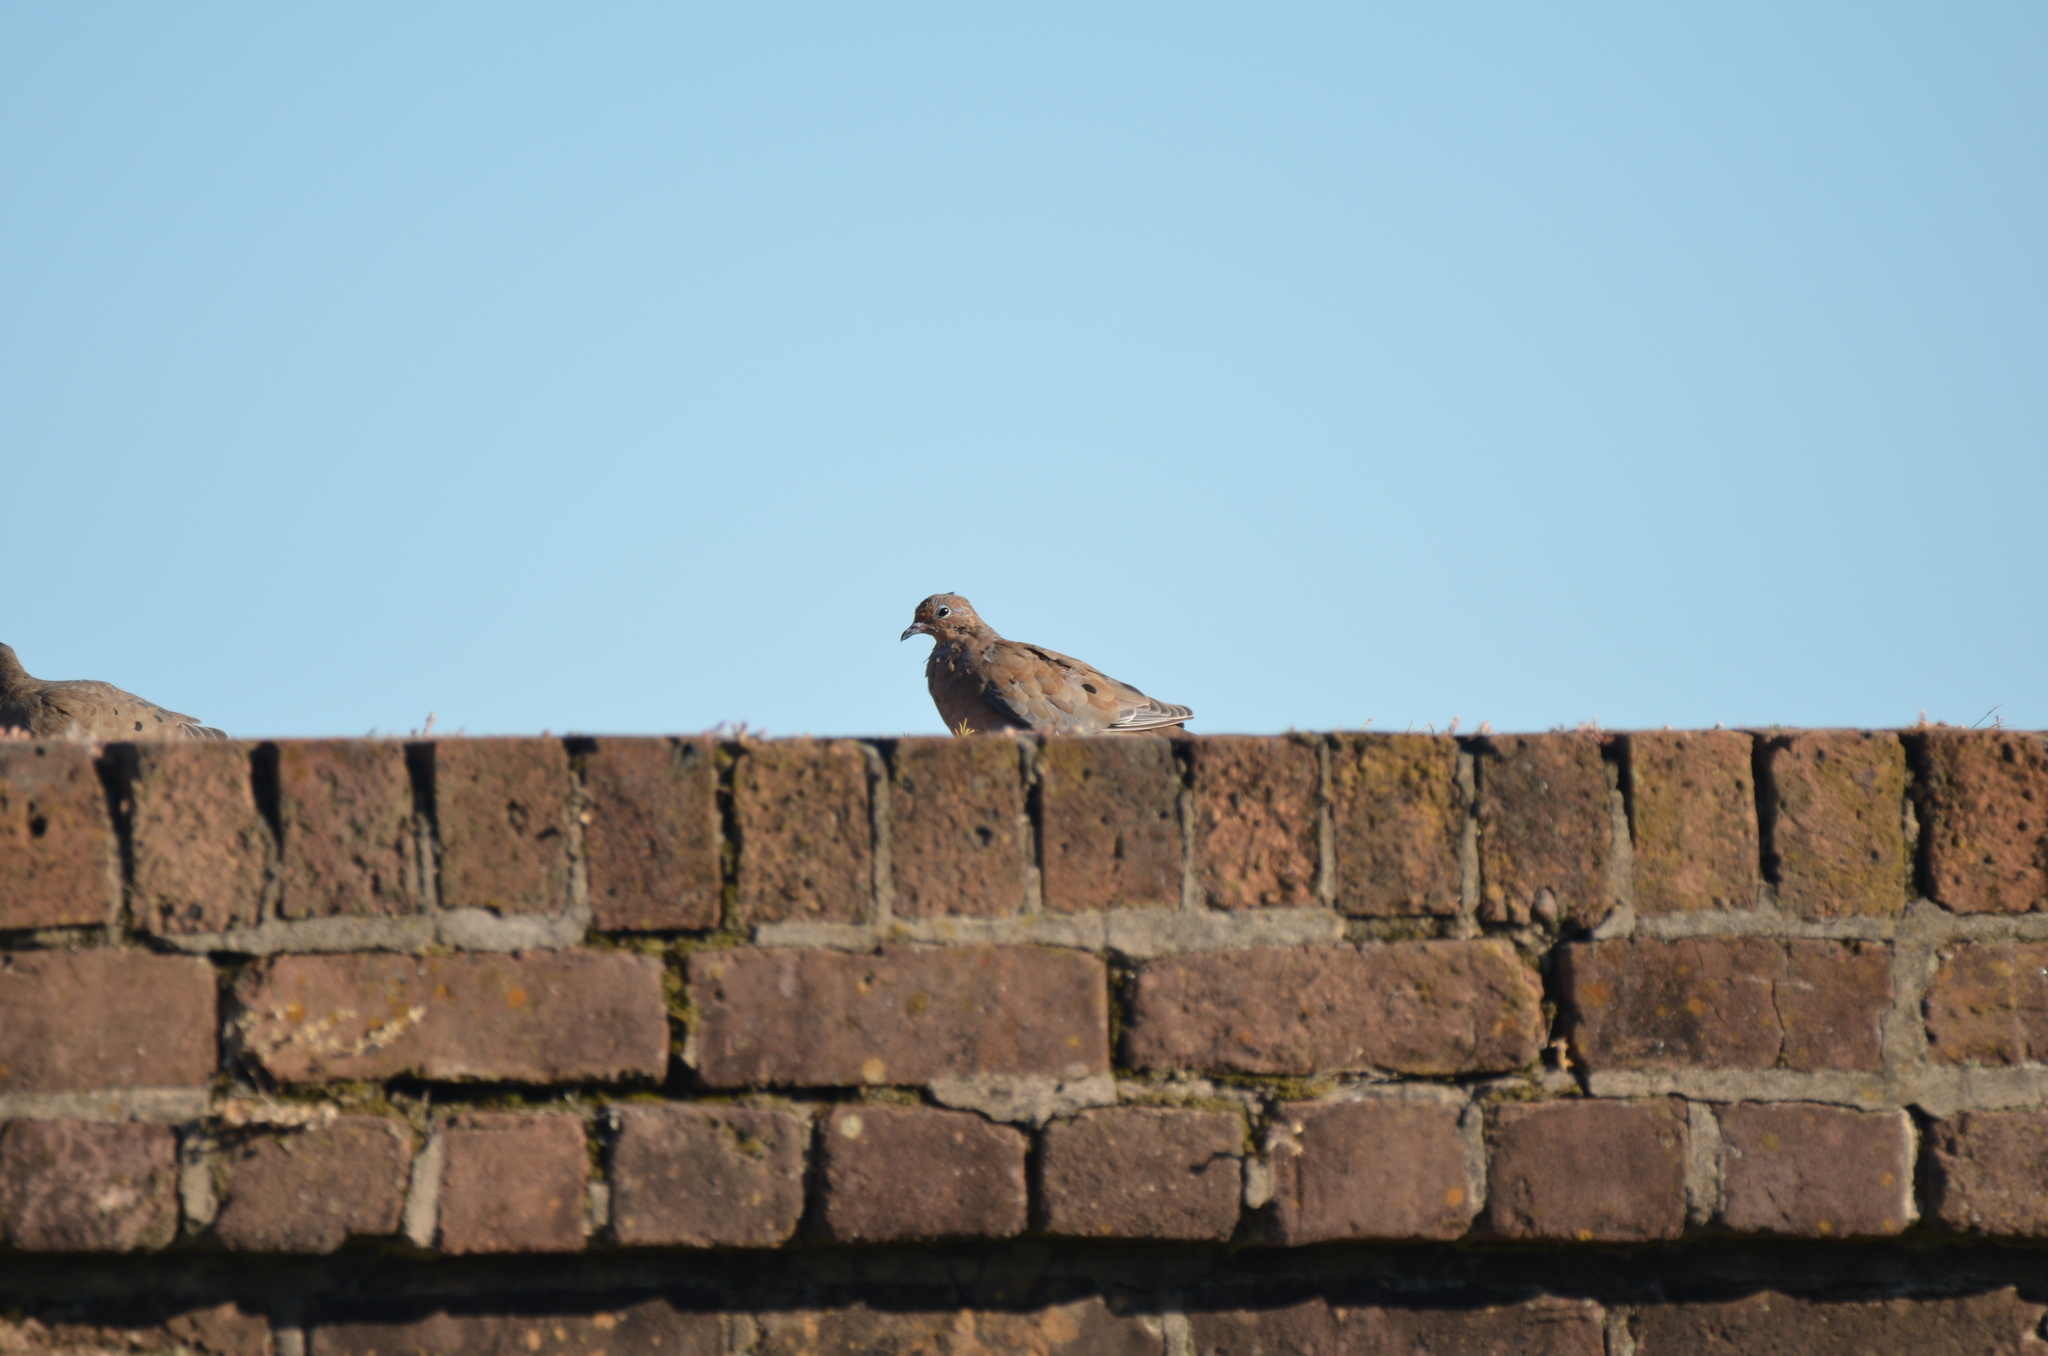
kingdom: Animalia
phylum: Chordata
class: Aves
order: Columbiformes
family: Columbidae
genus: Zenaida
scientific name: Zenaida macroura
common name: Mourning dove
